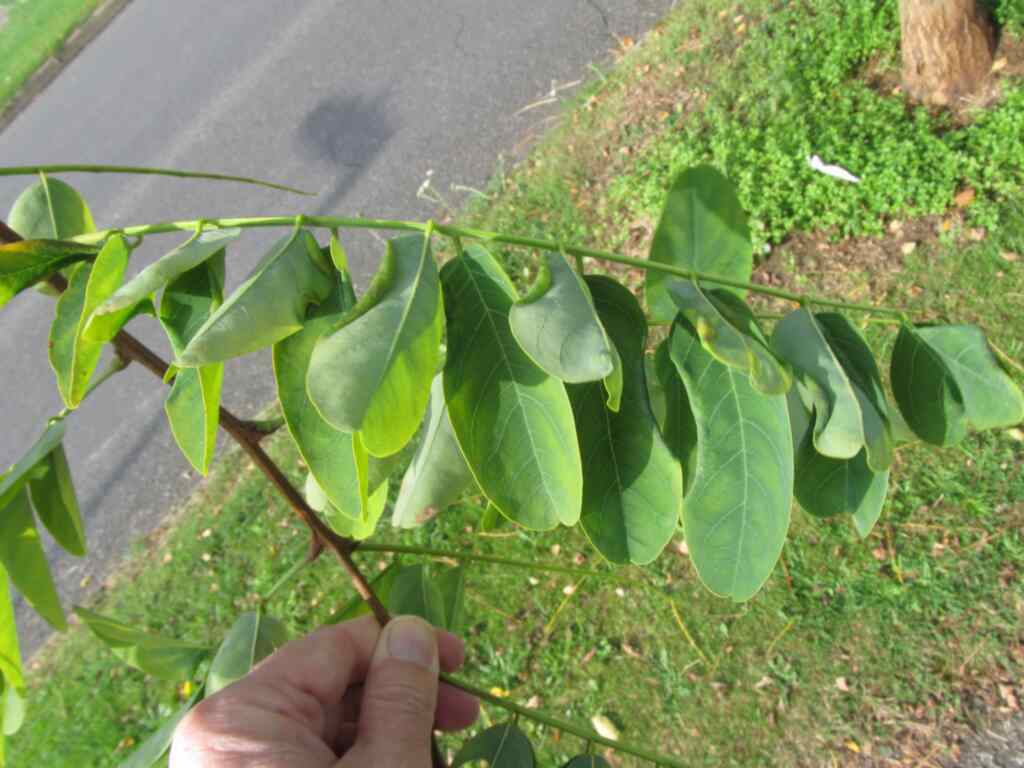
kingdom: Animalia
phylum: Arthropoda
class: Insecta
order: Diptera
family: Cecidomyiidae
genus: Obolodiplosis
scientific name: Obolodiplosis robiniae
